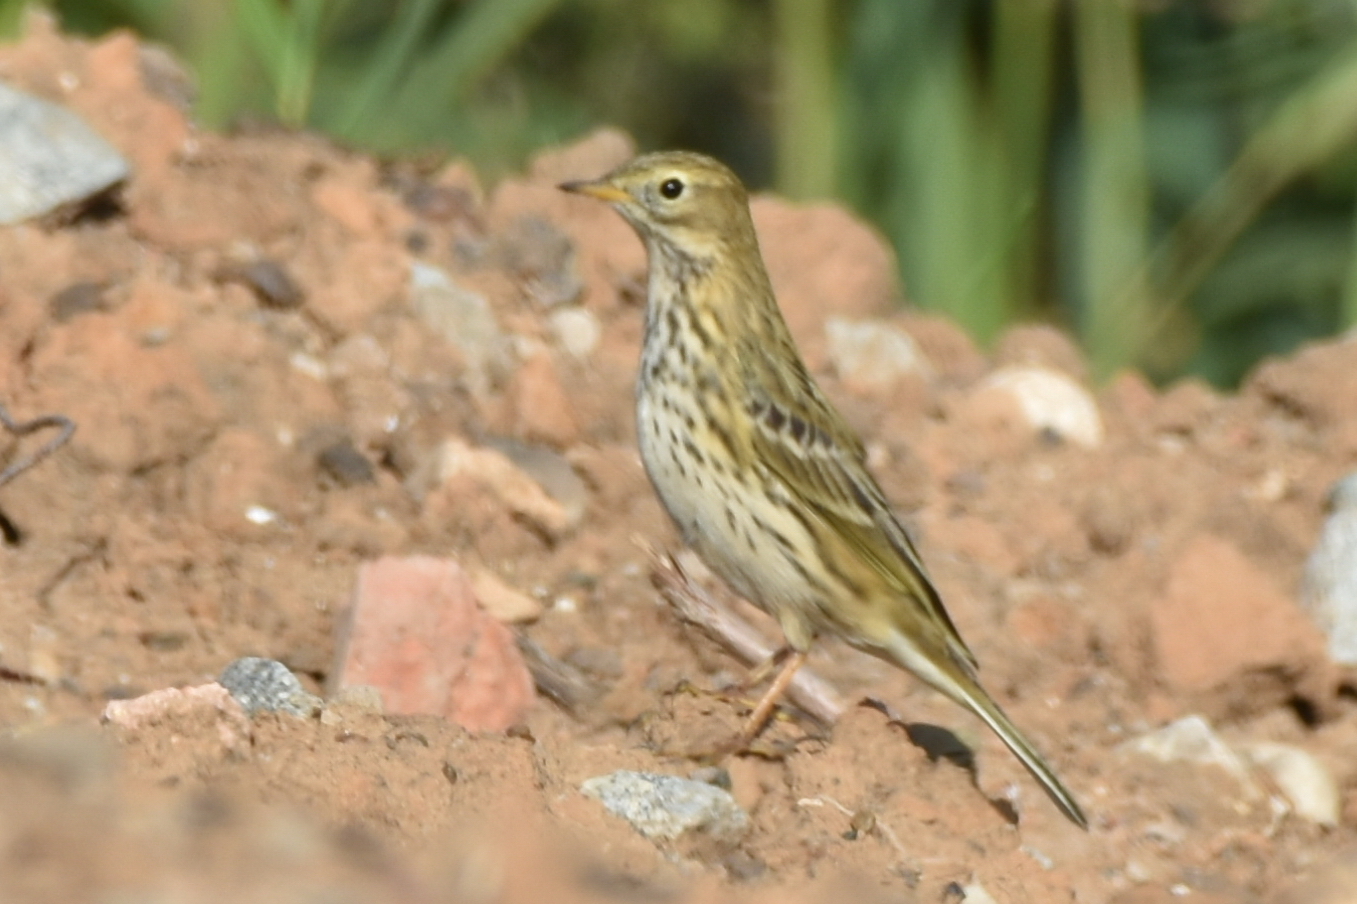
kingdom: Animalia
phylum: Chordata
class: Aves
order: Passeriformes
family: Motacillidae
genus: Anthus
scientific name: Anthus pratensis
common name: Meadow pipit
